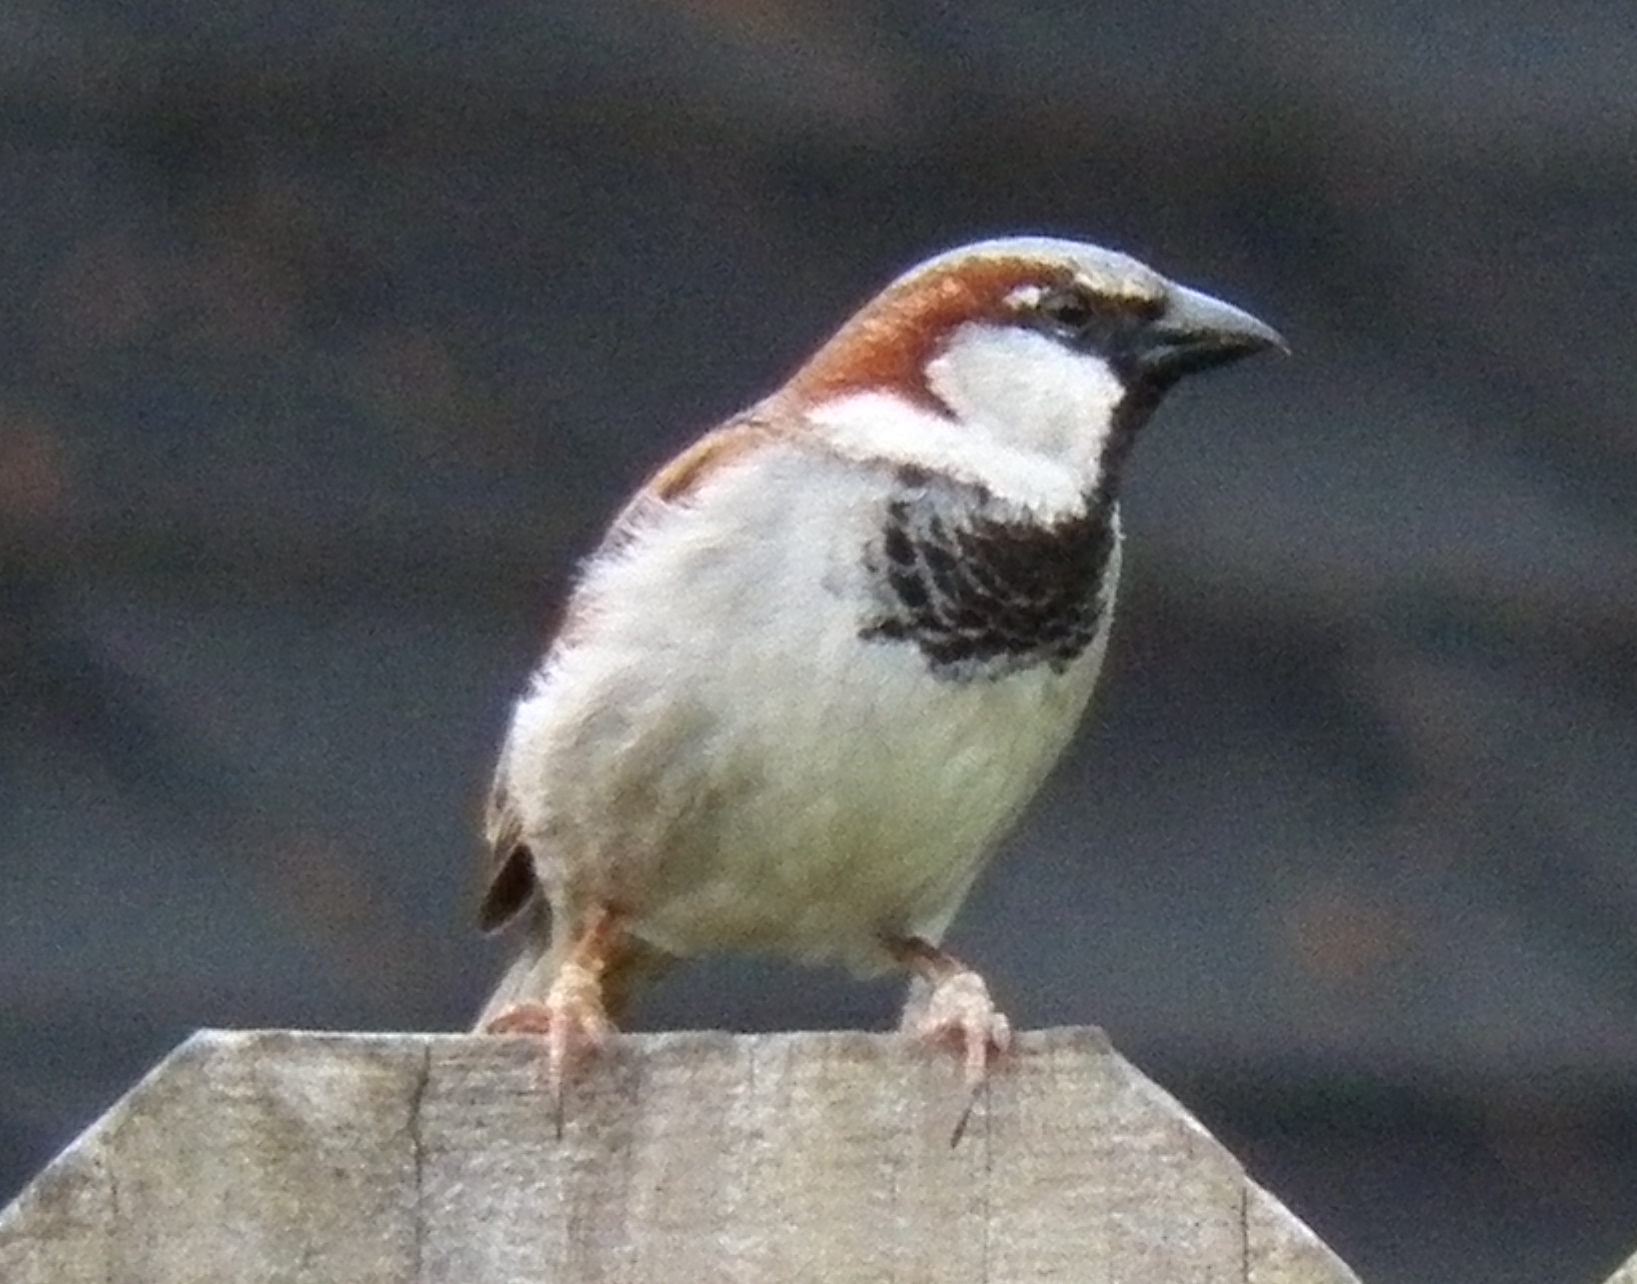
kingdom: Animalia
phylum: Chordata
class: Aves
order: Passeriformes
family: Passeridae
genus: Passer
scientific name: Passer domesticus
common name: House sparrow
